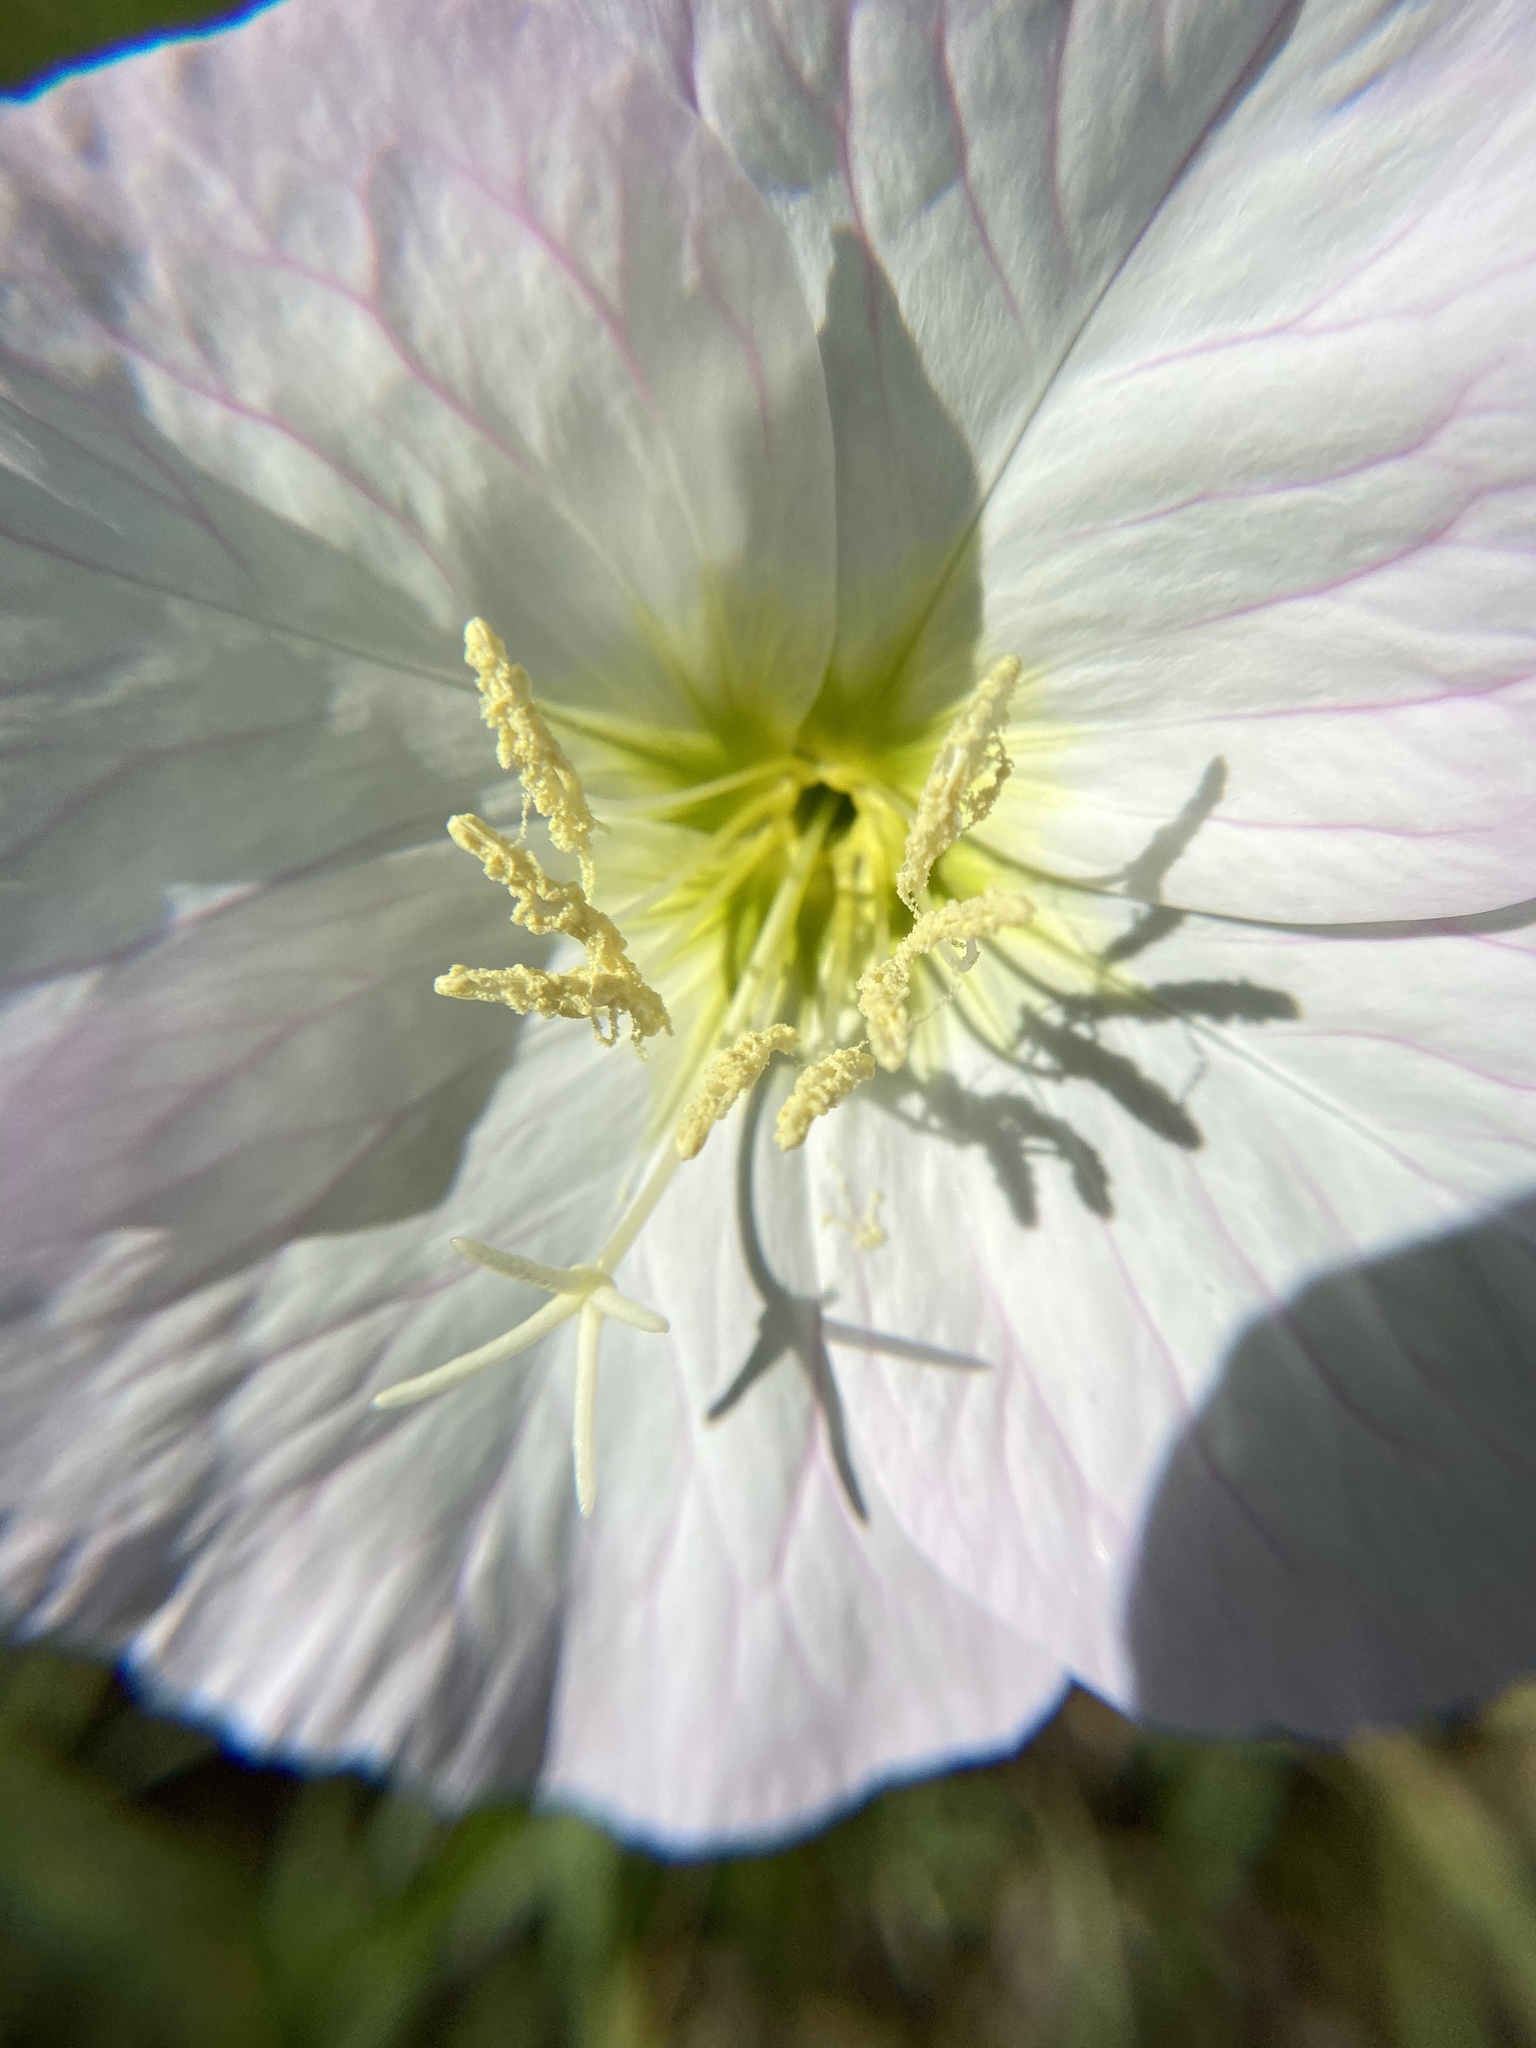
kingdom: Plantae
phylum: Tracheophyta
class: Magnoliopsida
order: Myrtales
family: Onagraceae
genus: Oenothera
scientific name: Oenothera speciosa
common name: White evening-primrose
